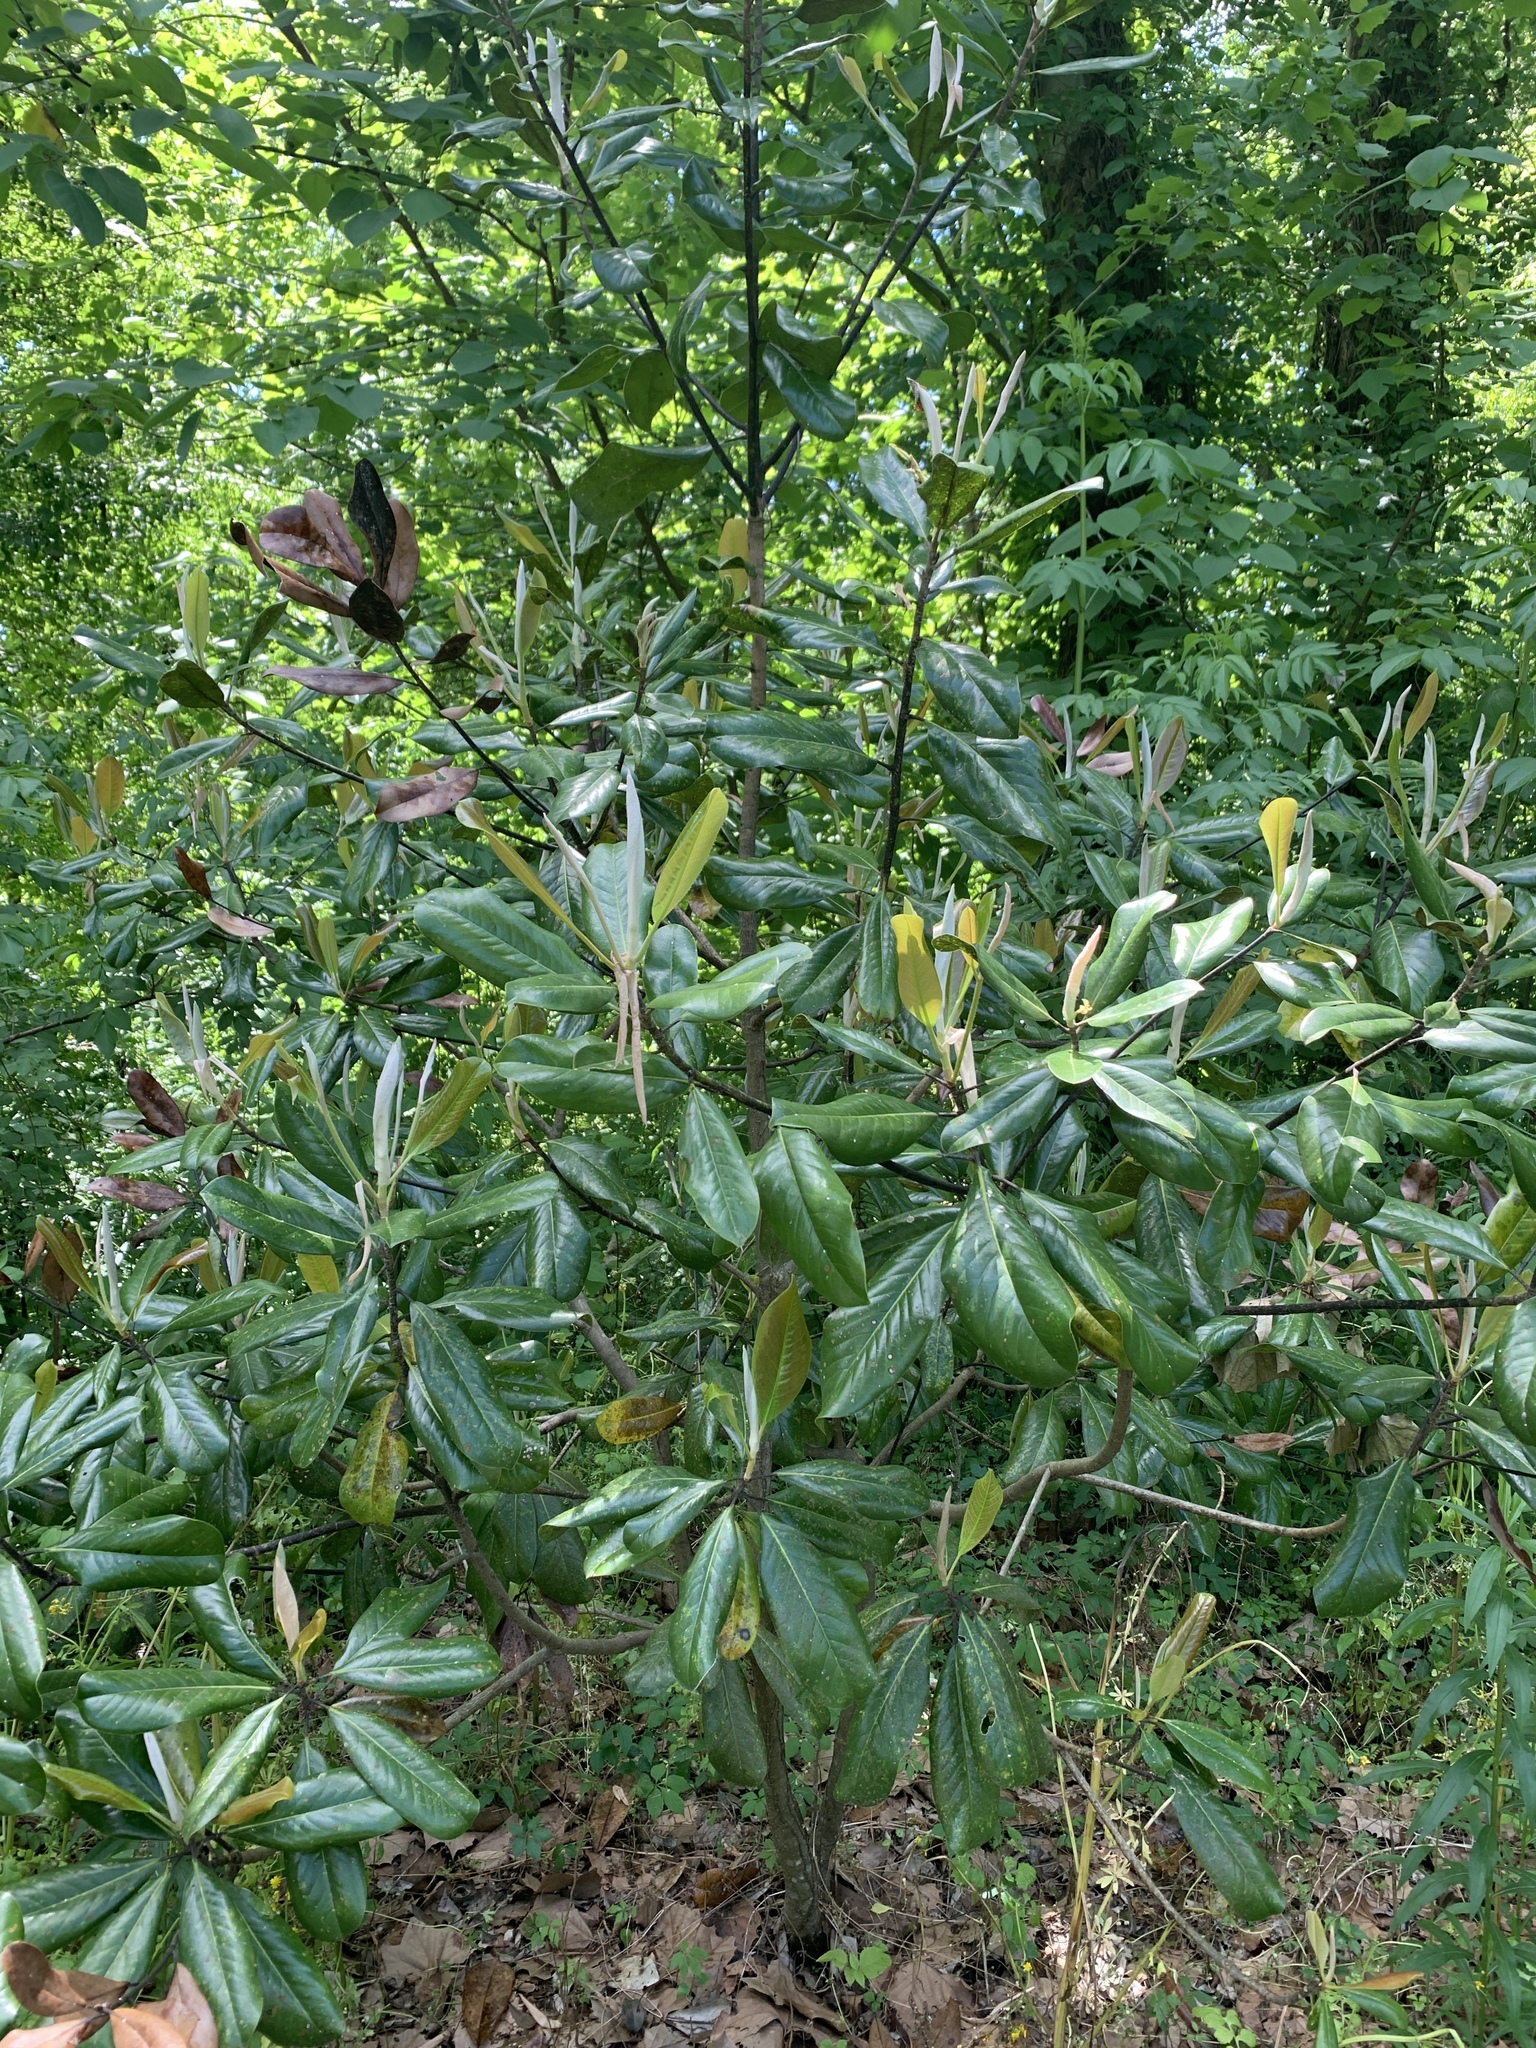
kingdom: Plantae
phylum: Tracheophyta
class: Magnoliopsida
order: Magnoliales
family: Magnoliaceae
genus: Magnolia
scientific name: Magnolia grandiflora
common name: Southern magnolia
